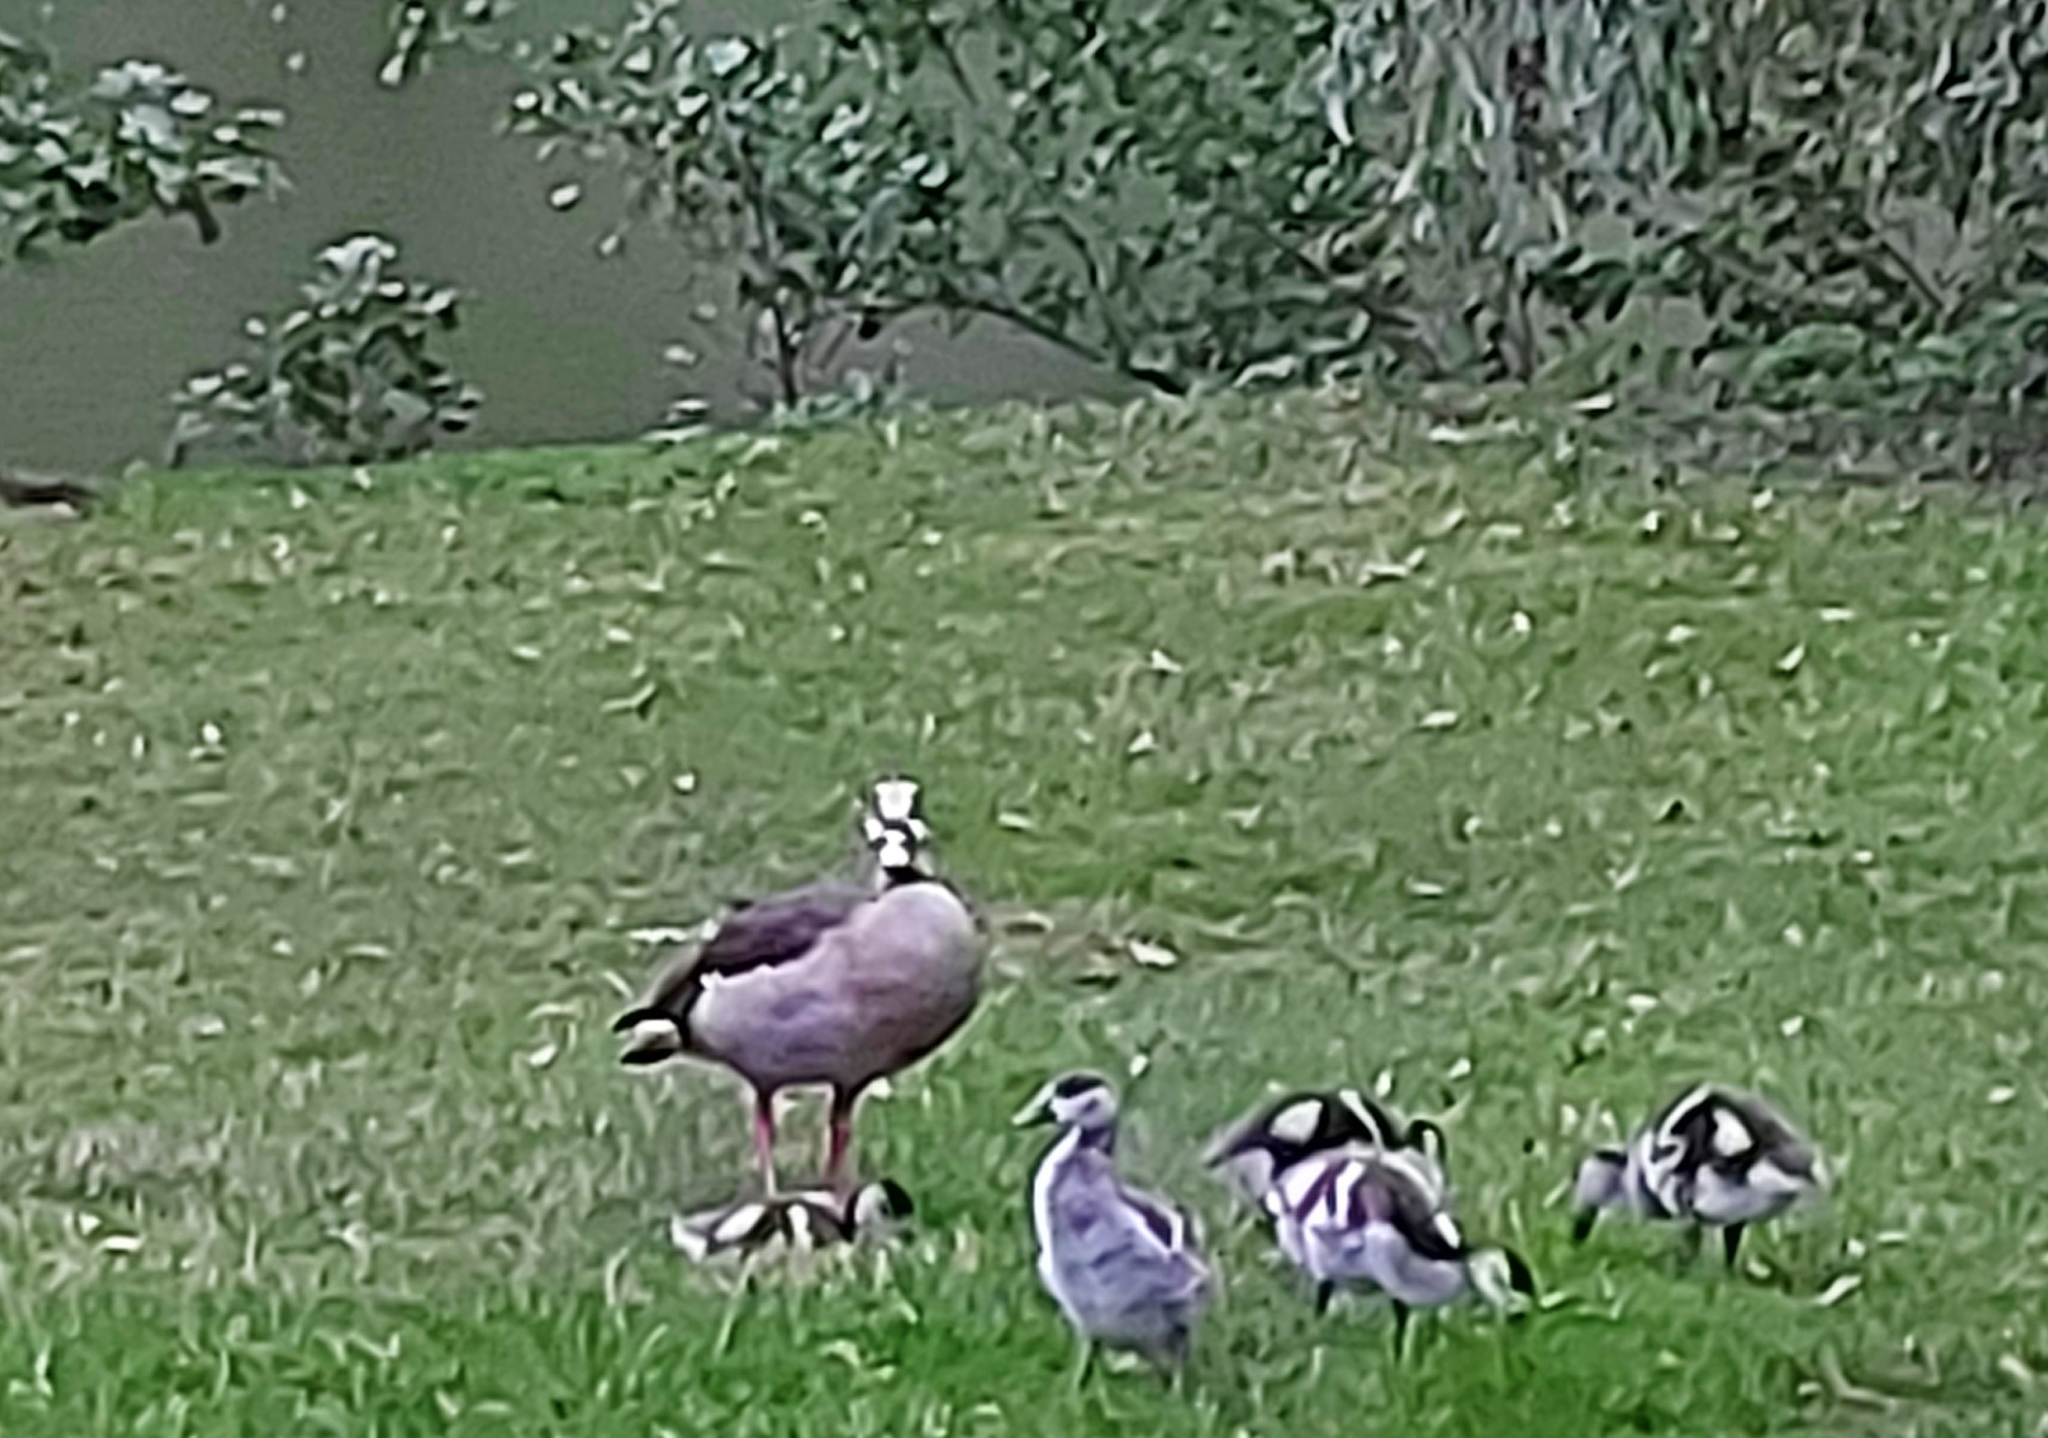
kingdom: Animalia
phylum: Chordata
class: Aves
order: Anseriformes
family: Anatidae
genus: Alopochen
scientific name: Alopochen aegyptiaca
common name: Egyptian goose
